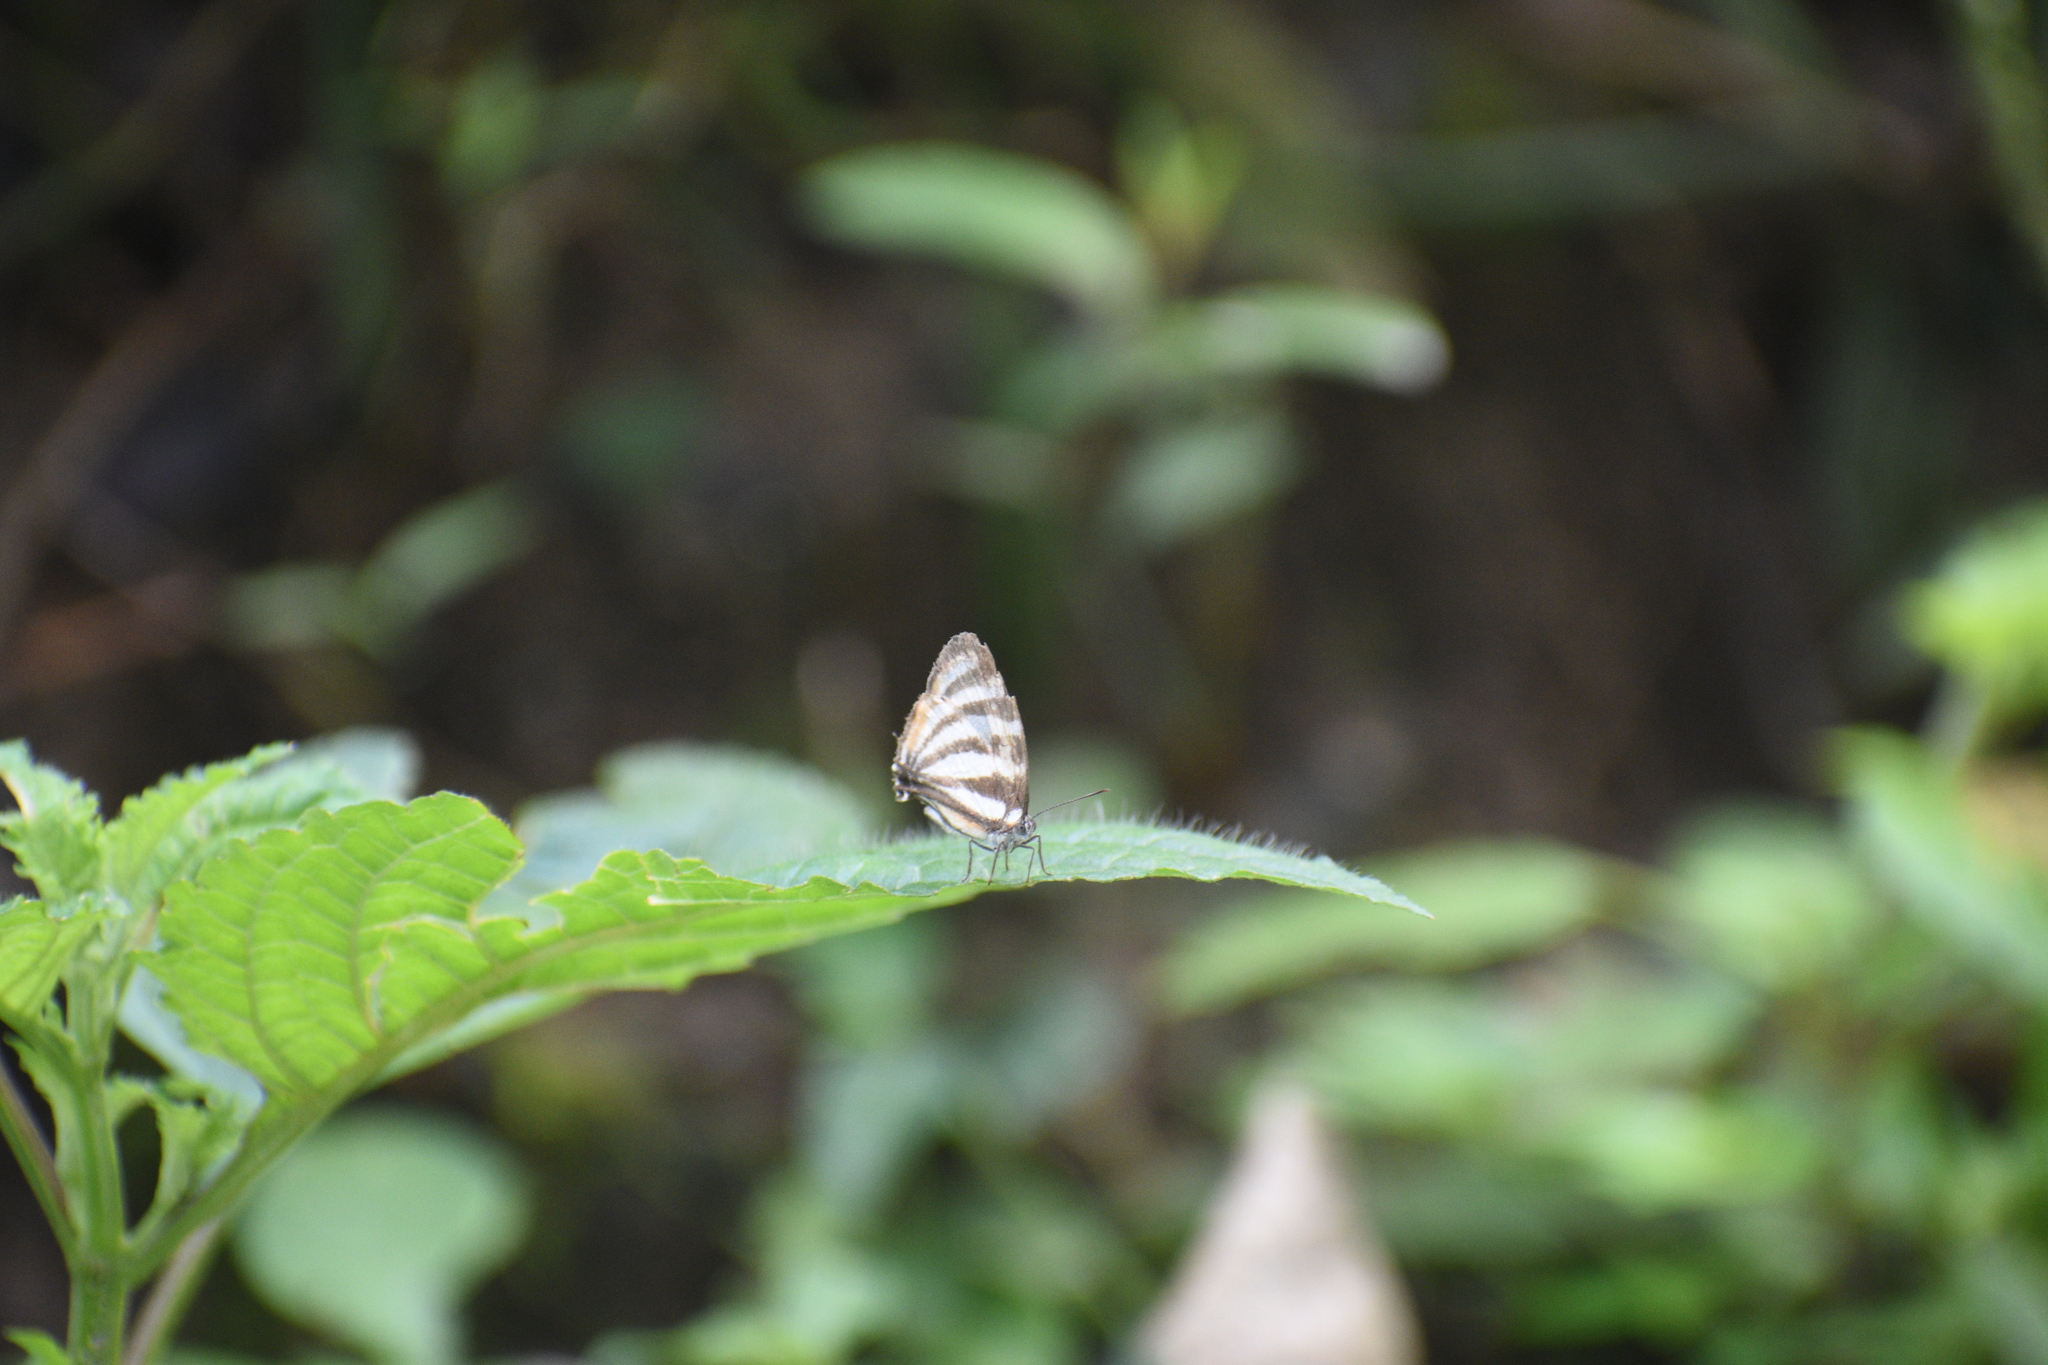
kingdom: Animalia
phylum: Arthropoda
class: Insecta
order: Lepidoptera
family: Lycaenidae
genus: Arawacus
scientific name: Arawacus lincoides
